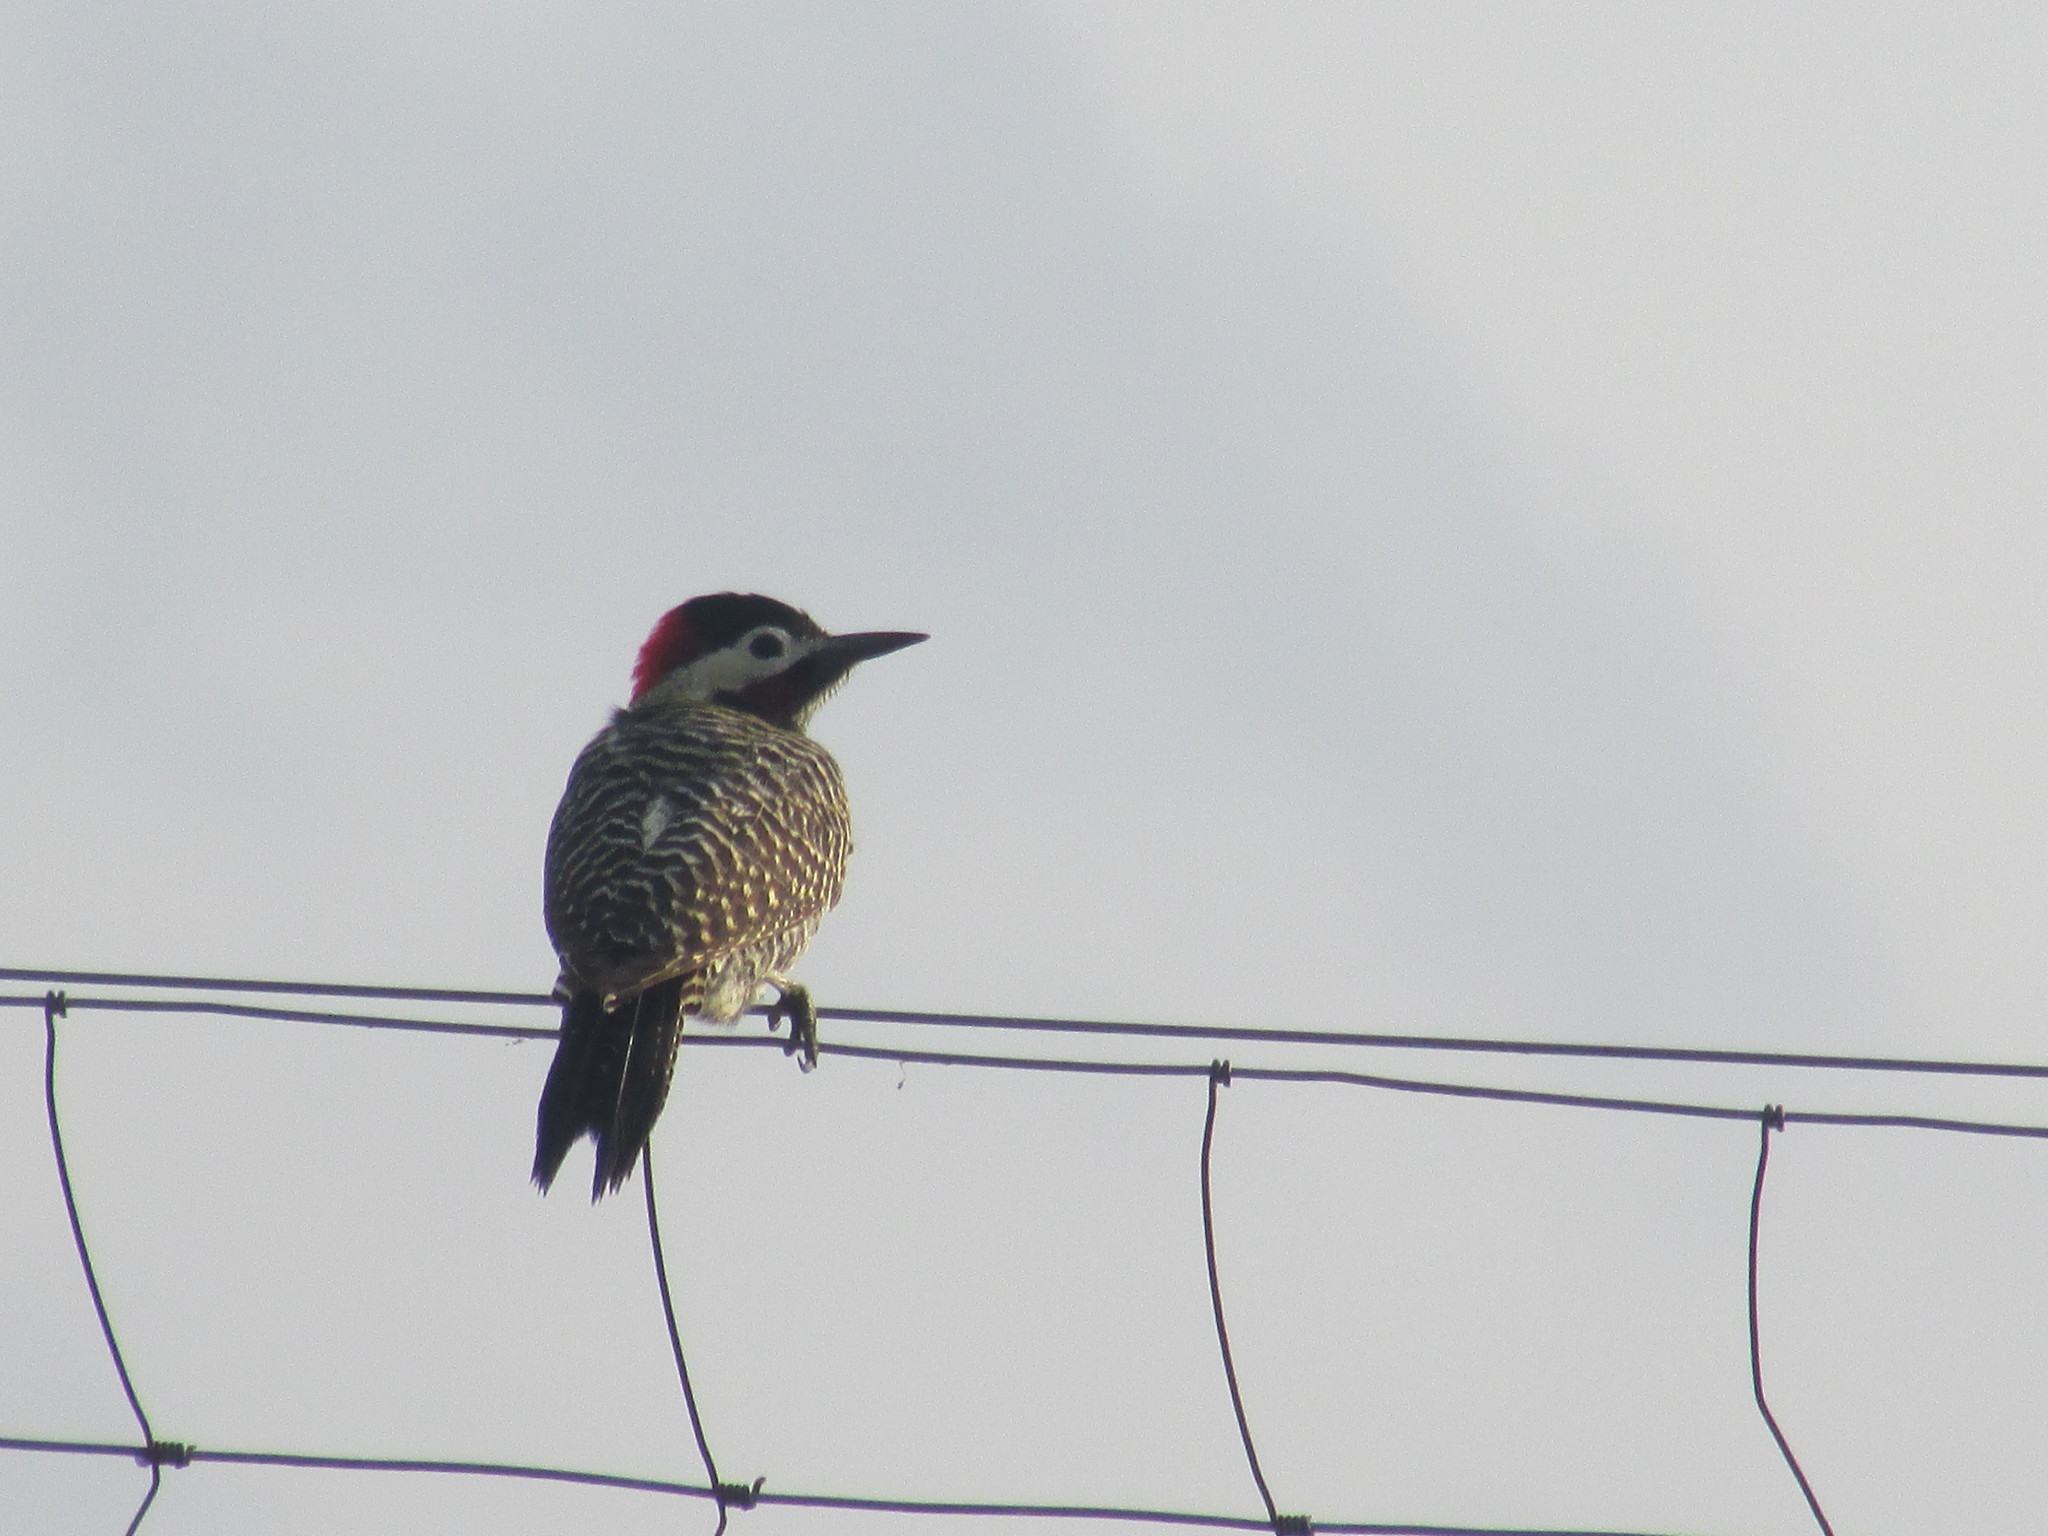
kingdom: Animalia
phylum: Chordata
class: Aves
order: Piciformes
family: Picidae
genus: Colaptes
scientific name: Colaptes melanochloros
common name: Green-barred woodpecker
